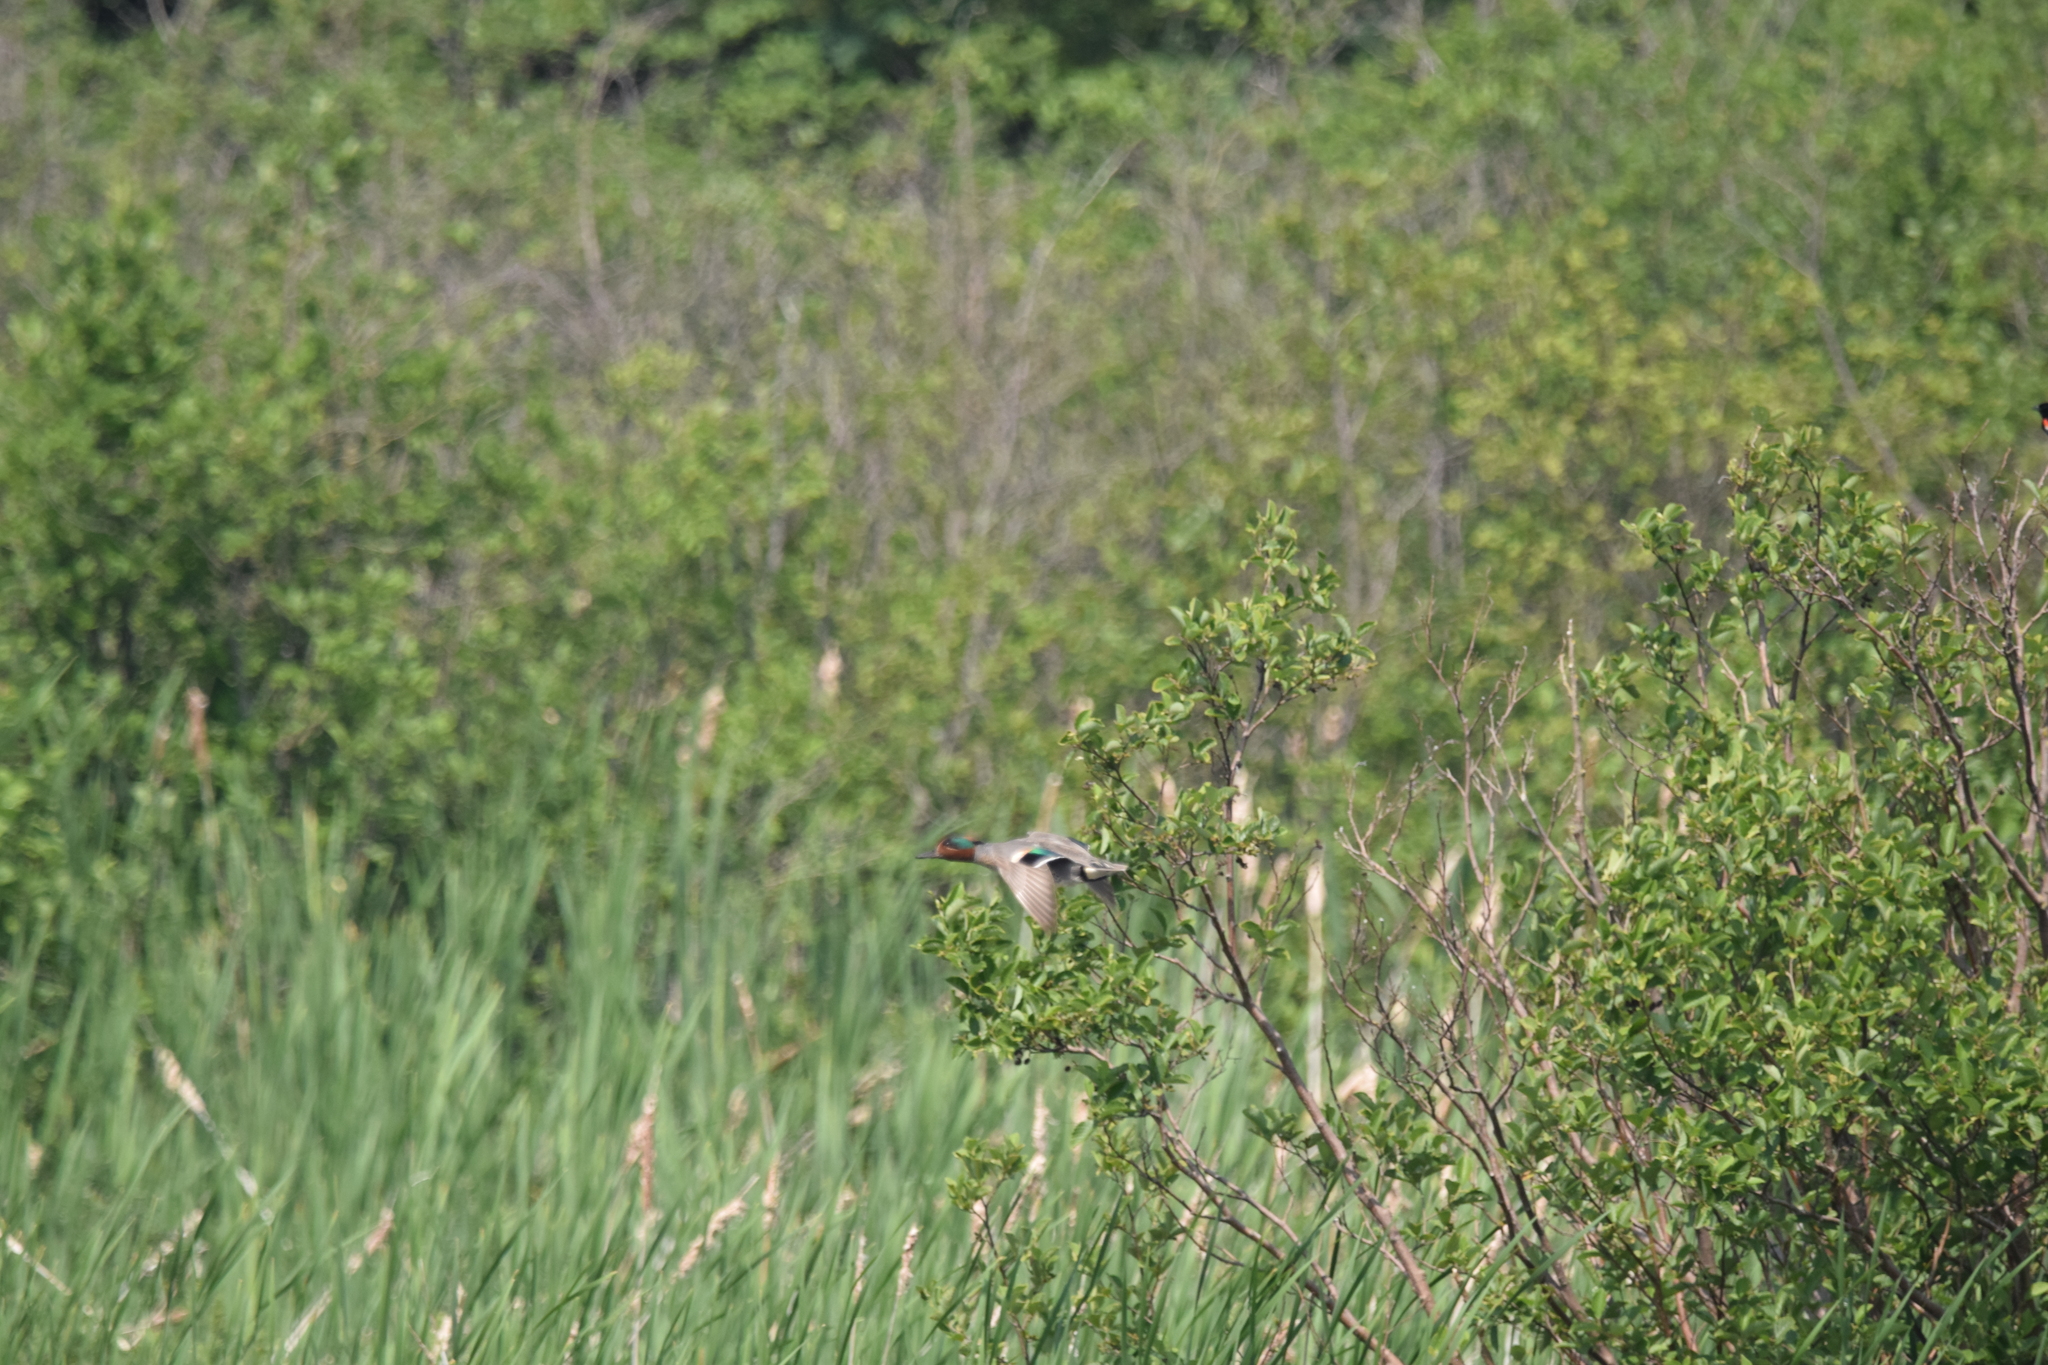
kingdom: Animalia
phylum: Chordata
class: Aves
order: Anseriformes
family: Anatidae
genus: Anas
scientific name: Anas carolinensis
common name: Green-winged teal
